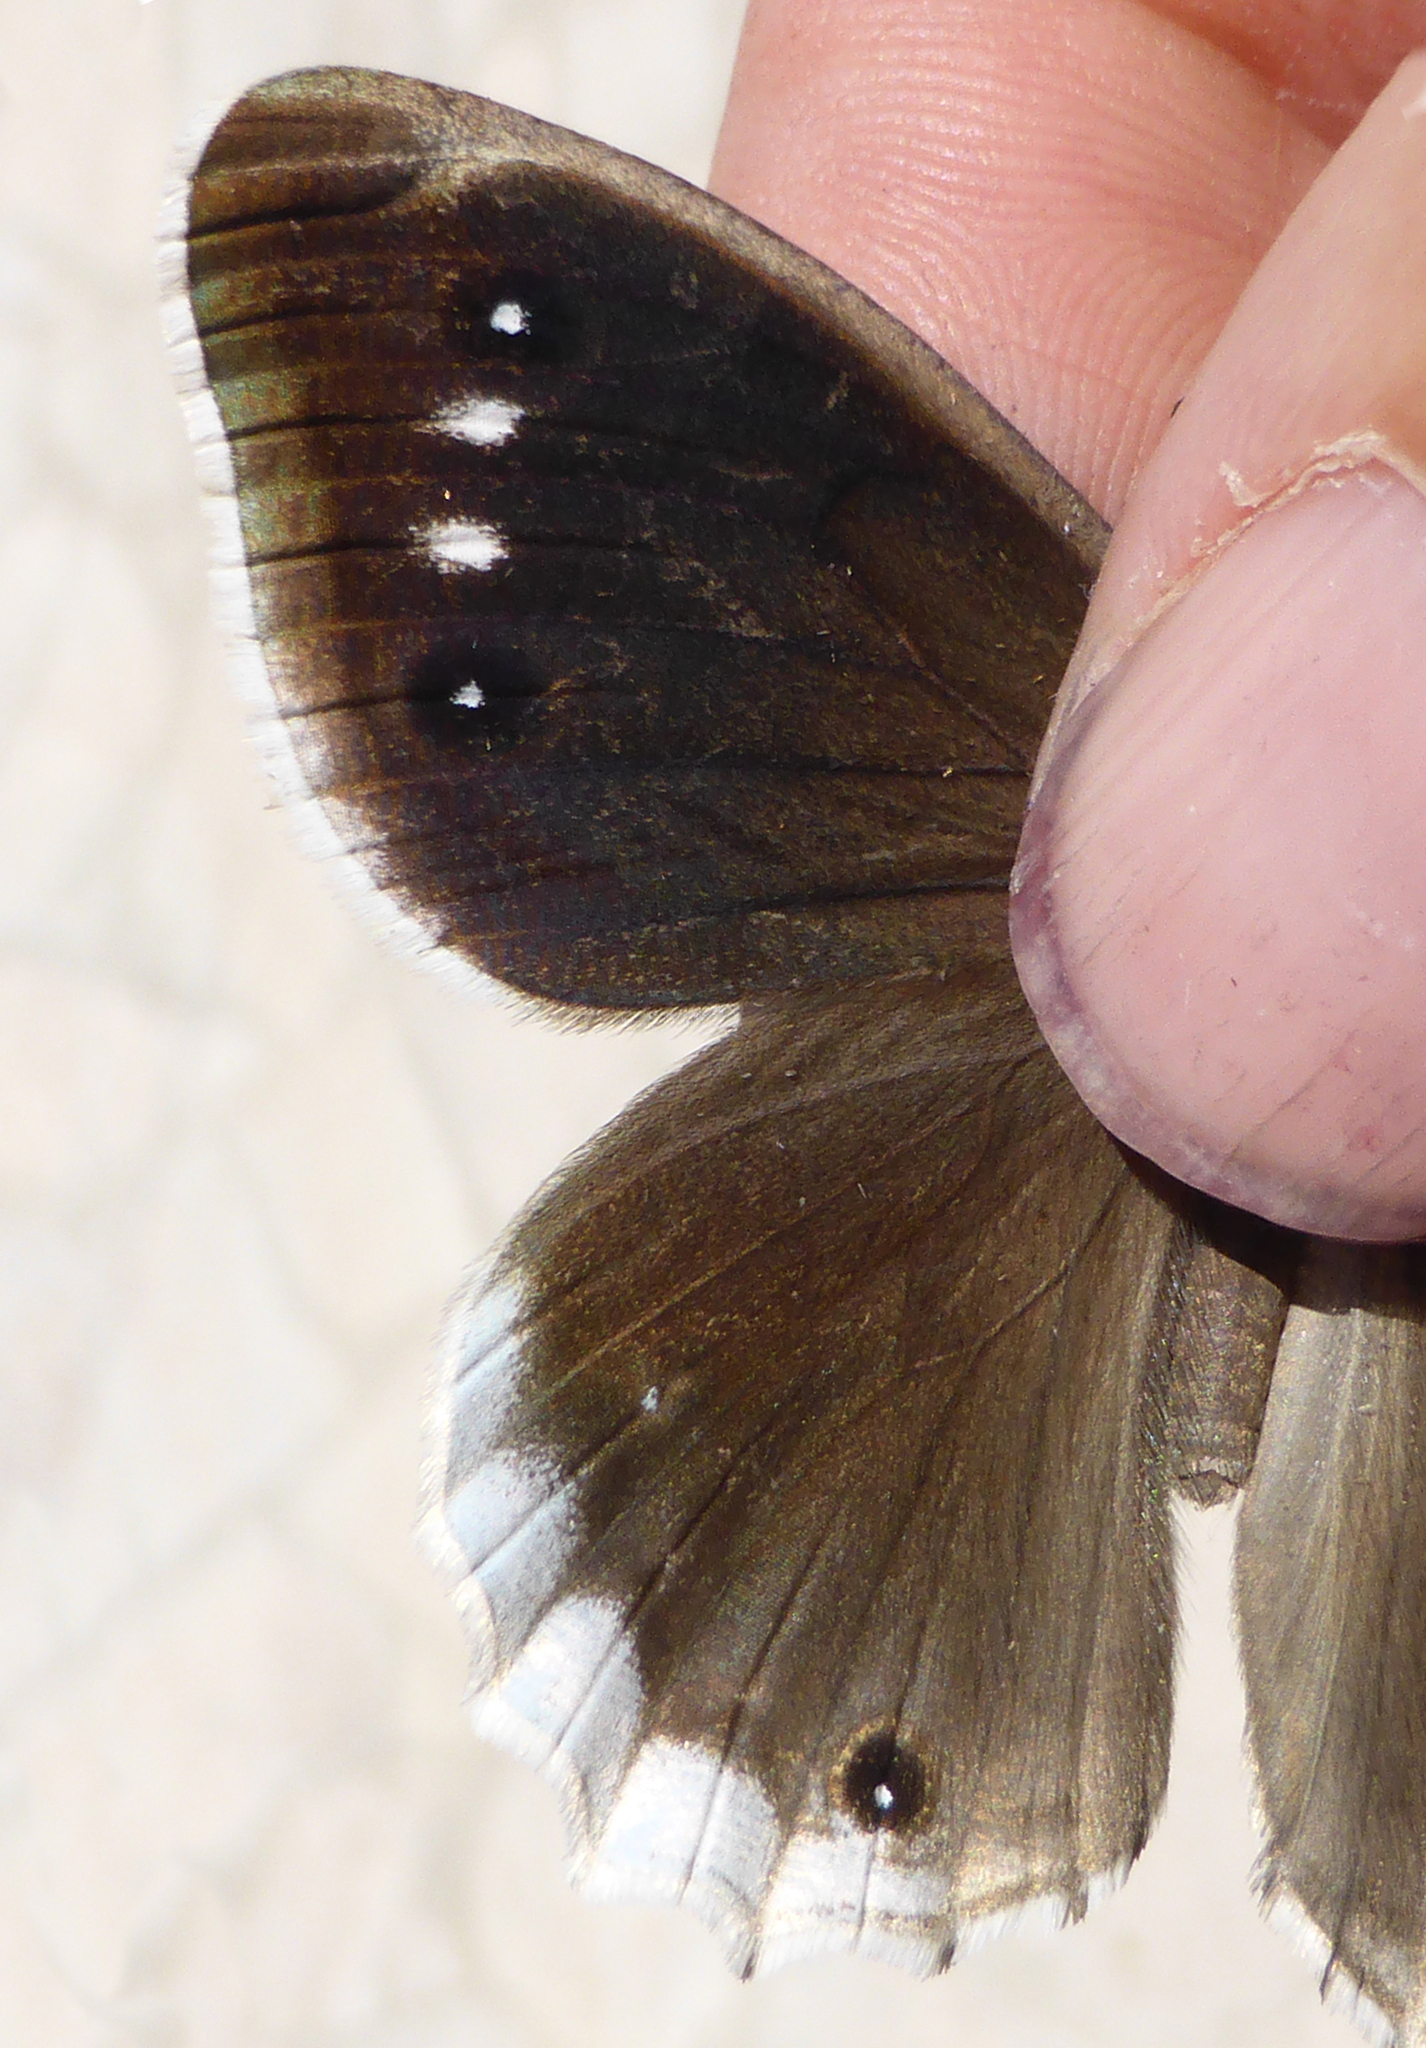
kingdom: Animalia
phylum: Arthropoda
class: Insecta
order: Lepidoptera
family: Nymphalidae
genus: Hipparchia
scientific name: Hipparchia parisatis
